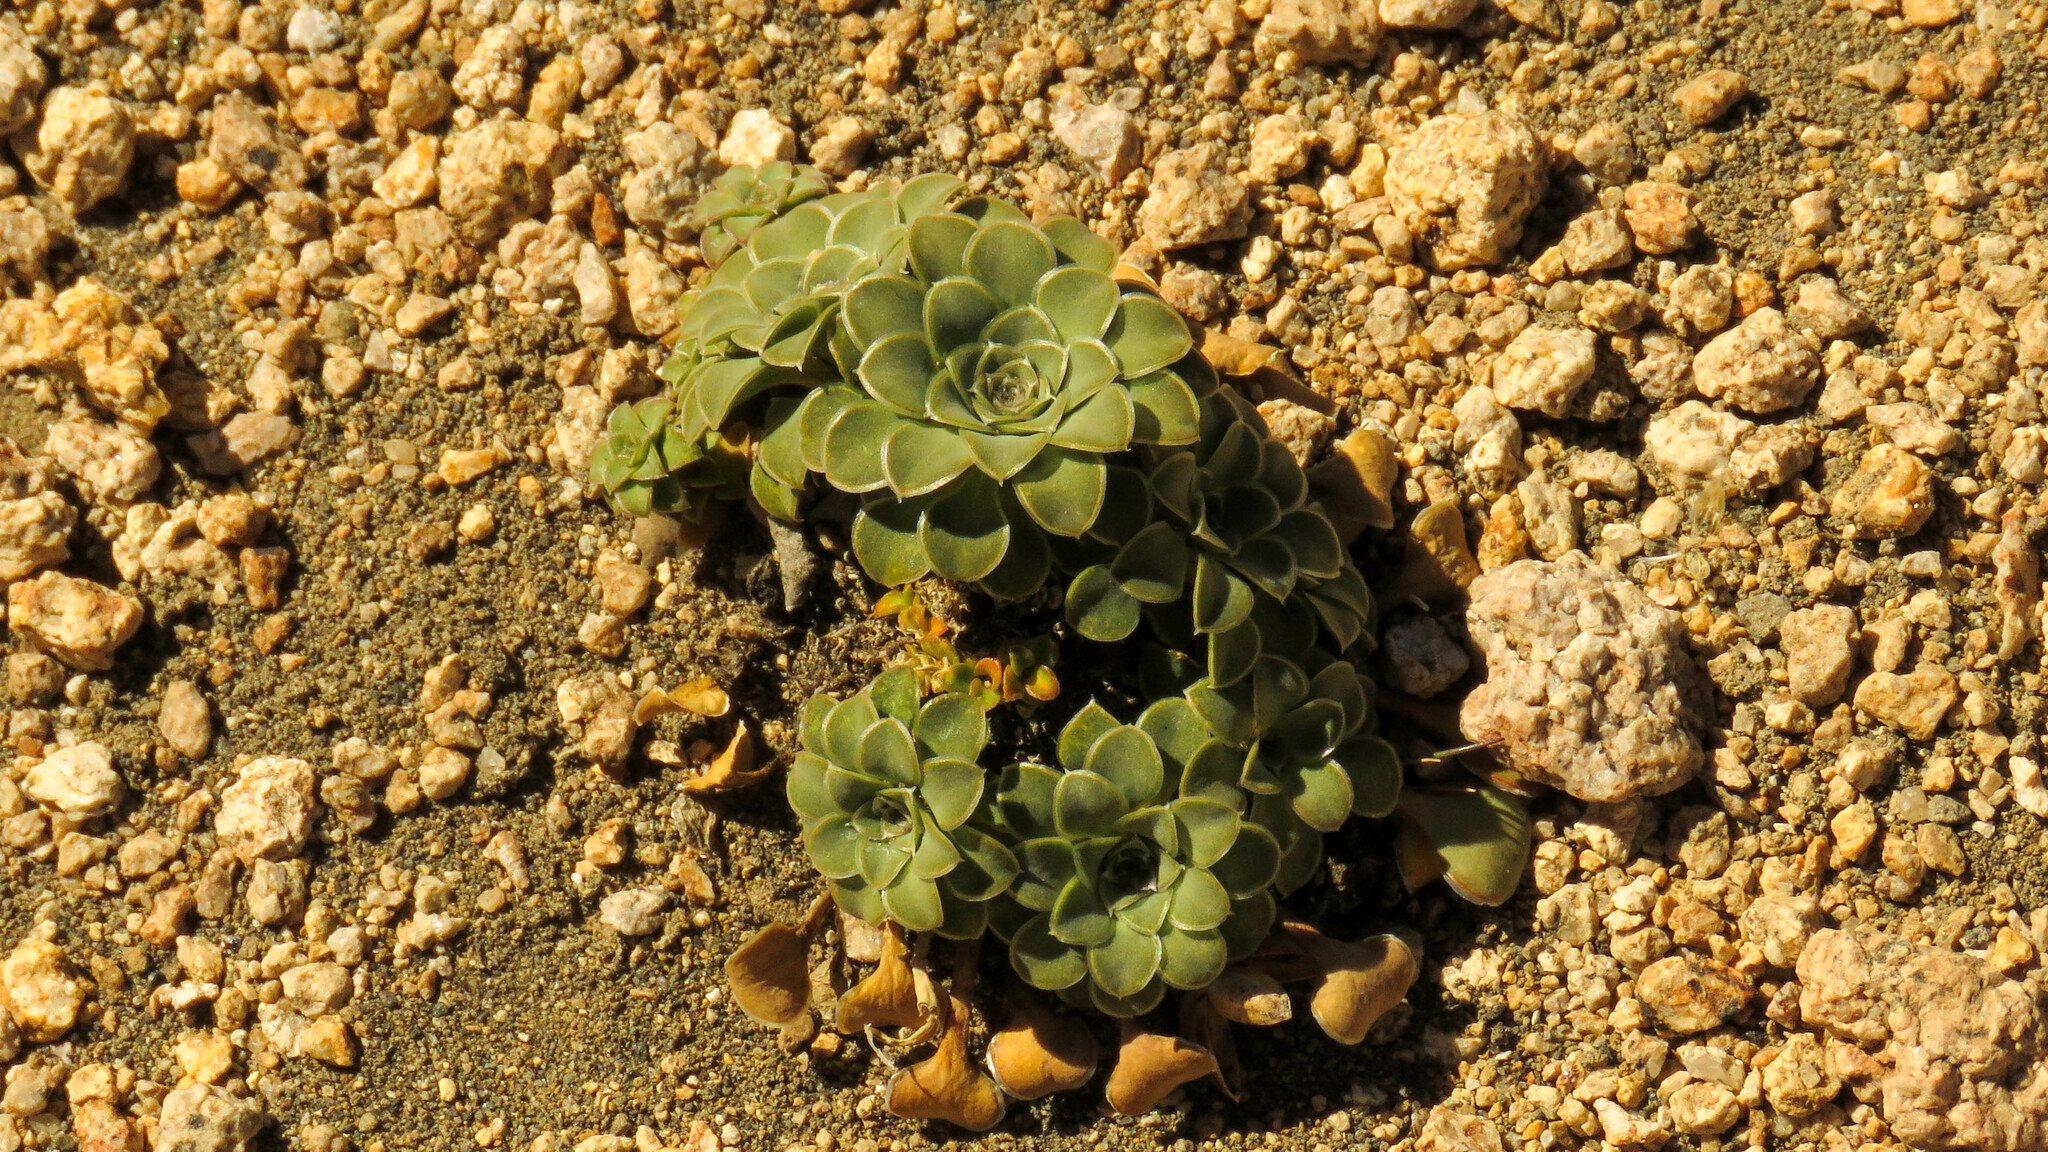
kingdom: Plantae
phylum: Tracheophyta
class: Magnoliopsida
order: Malpighiales
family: Violaceae
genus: Viola
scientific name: Viola petraea
